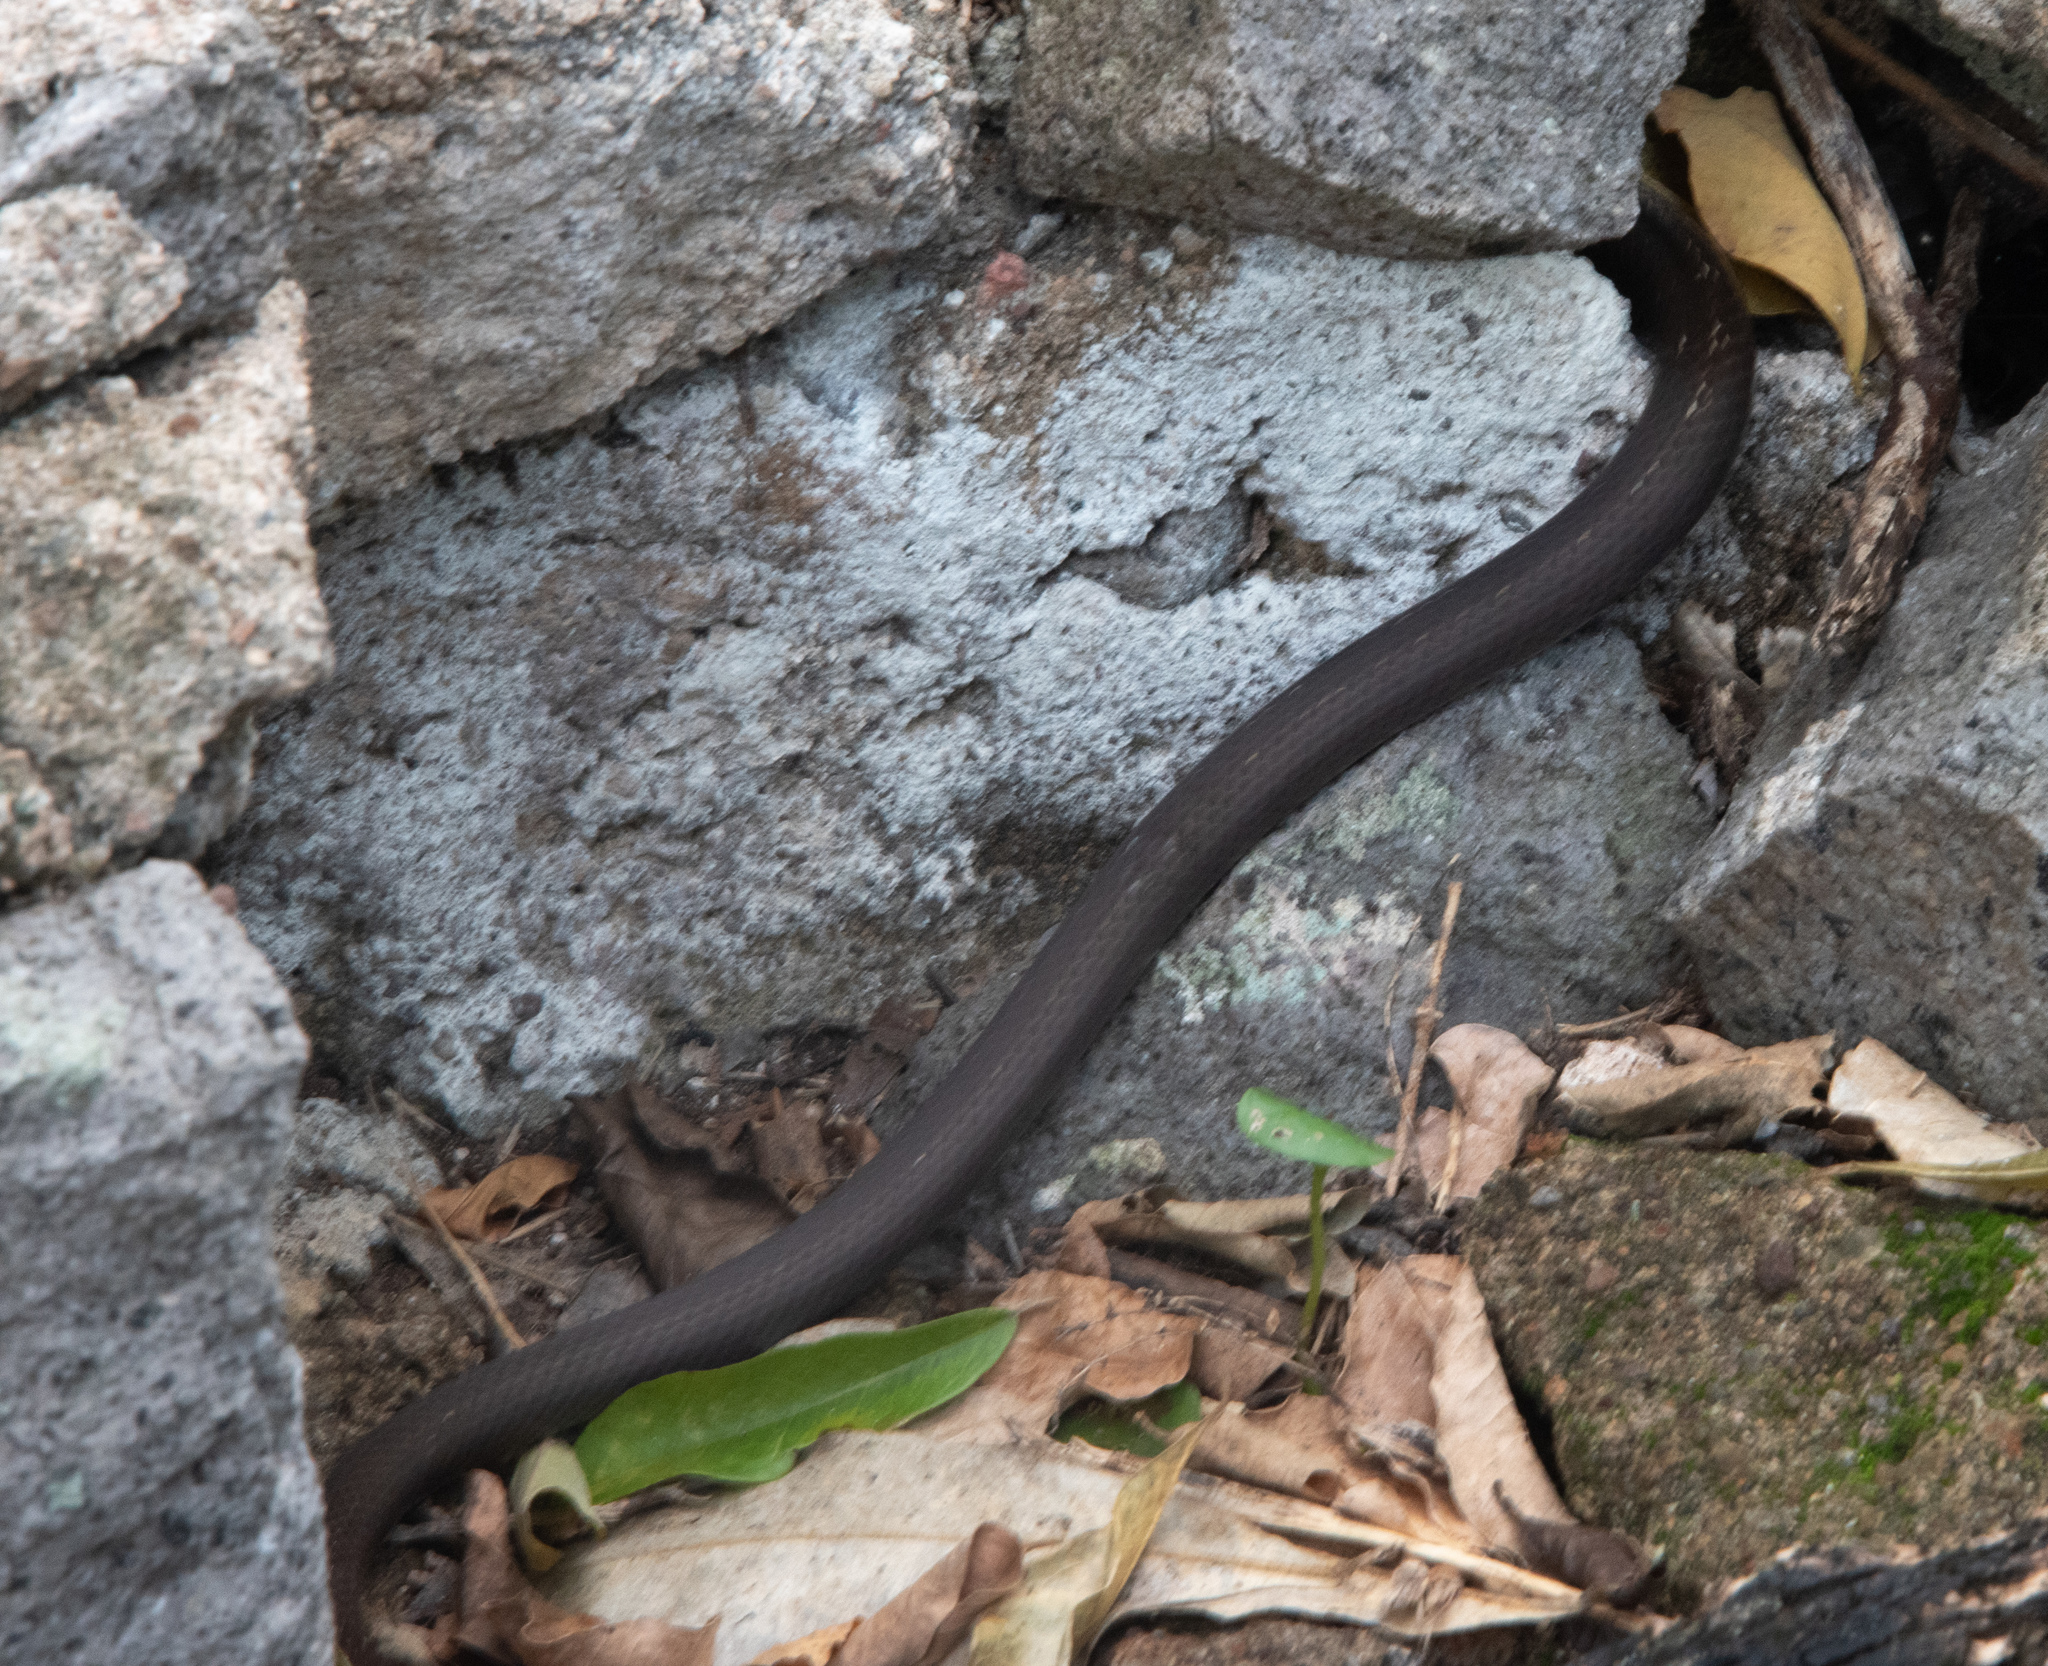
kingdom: Animalia
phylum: Chordata
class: Squamata
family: Colubridae
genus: Alsophis
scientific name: Alsophis sibonius
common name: Dominican racer
